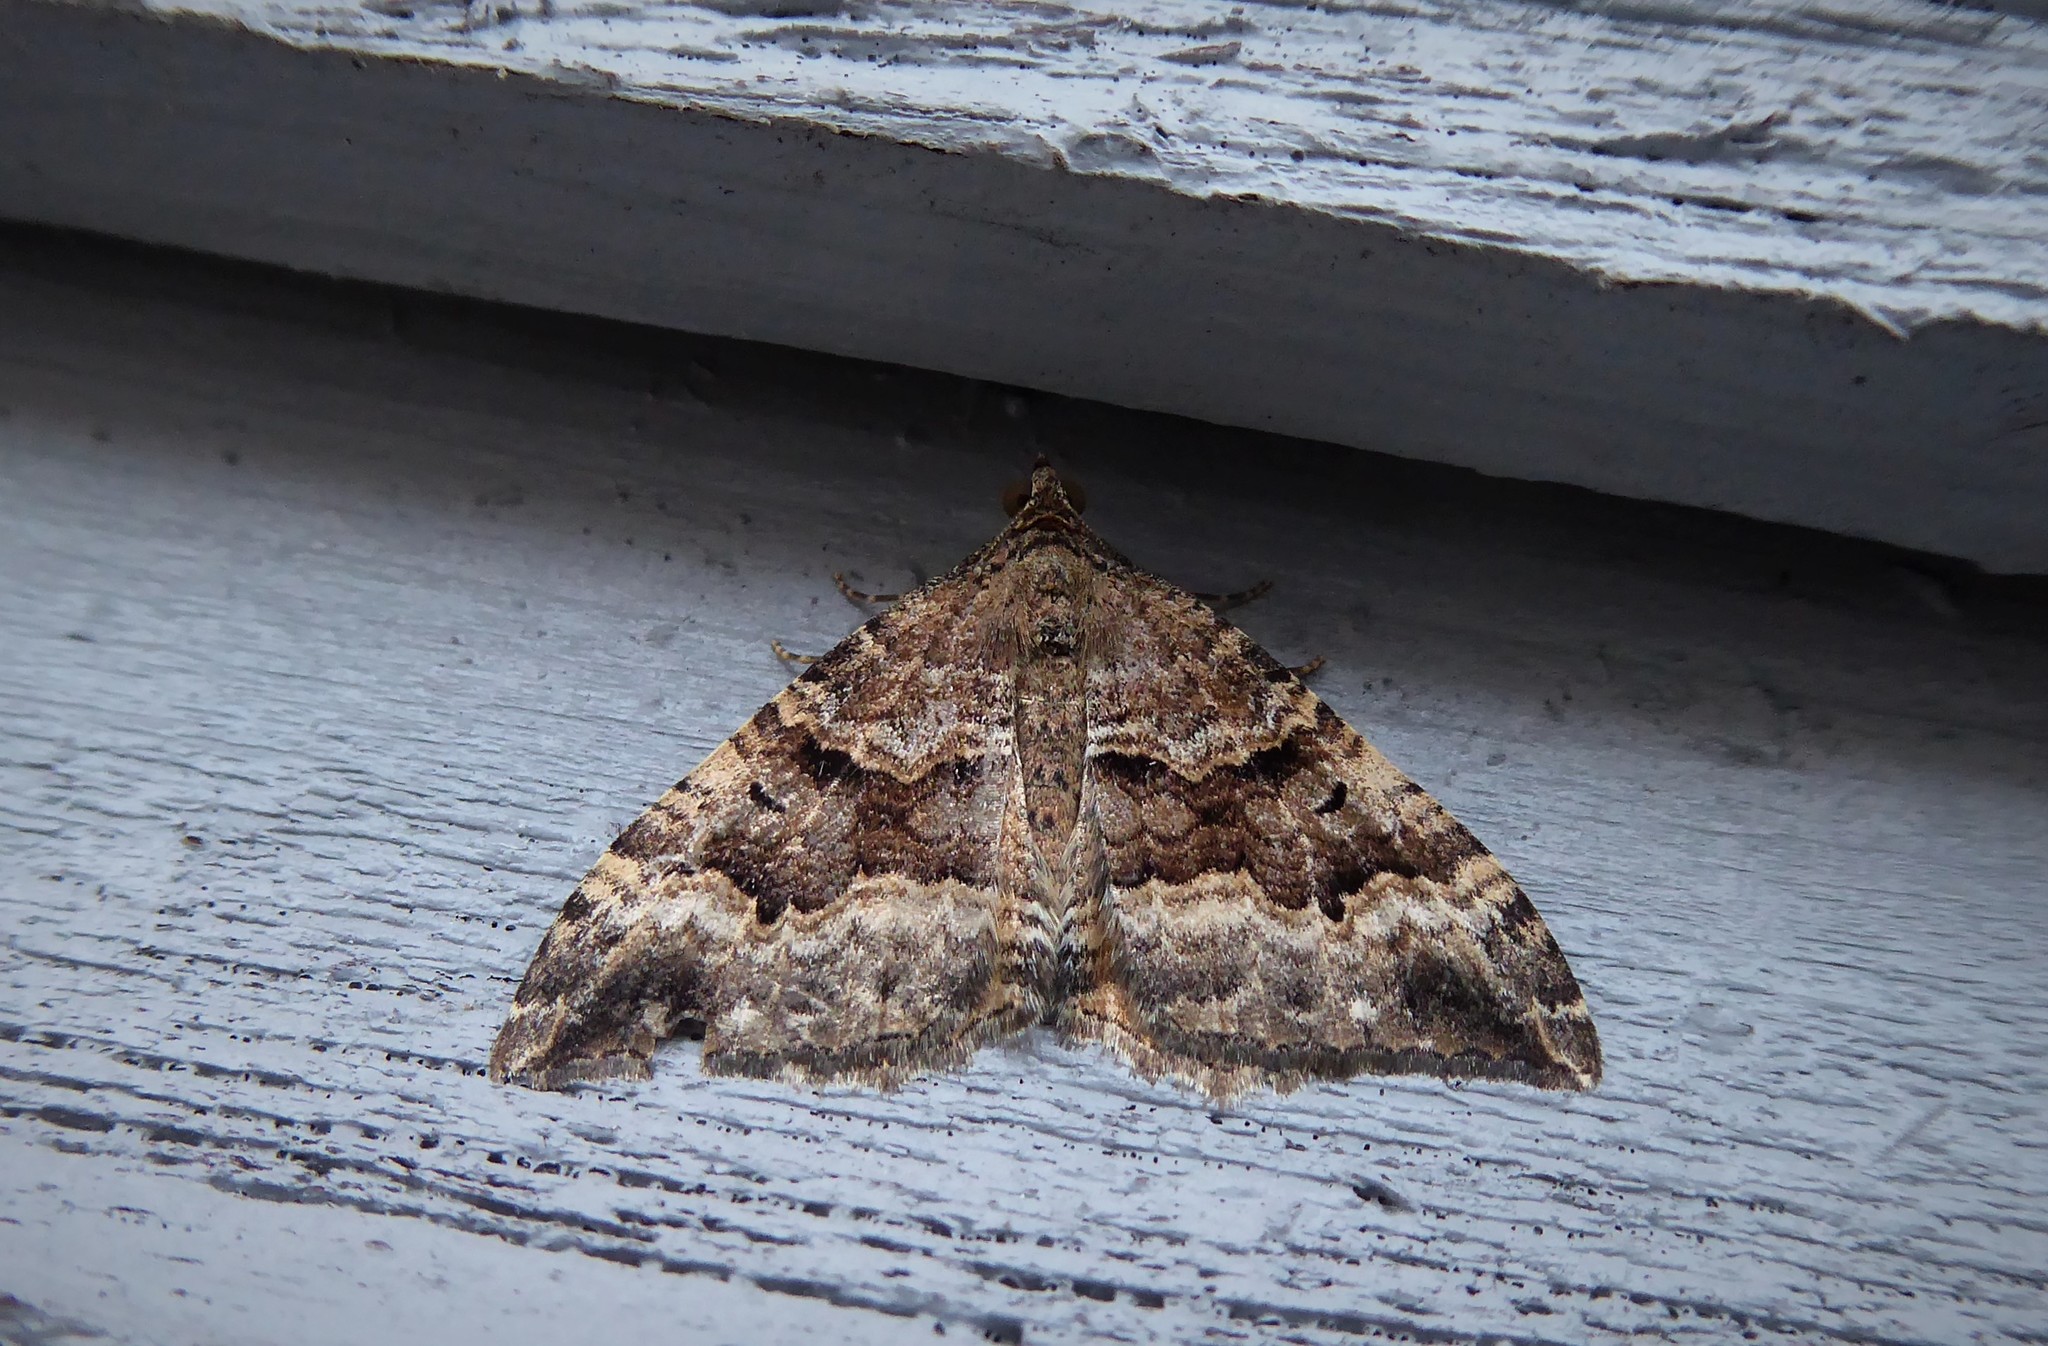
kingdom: Animalia
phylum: Arthropoda
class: Insecta
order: Lepidoptera
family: Geometridae
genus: Hydriomena
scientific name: Hydriomena deltoidata
